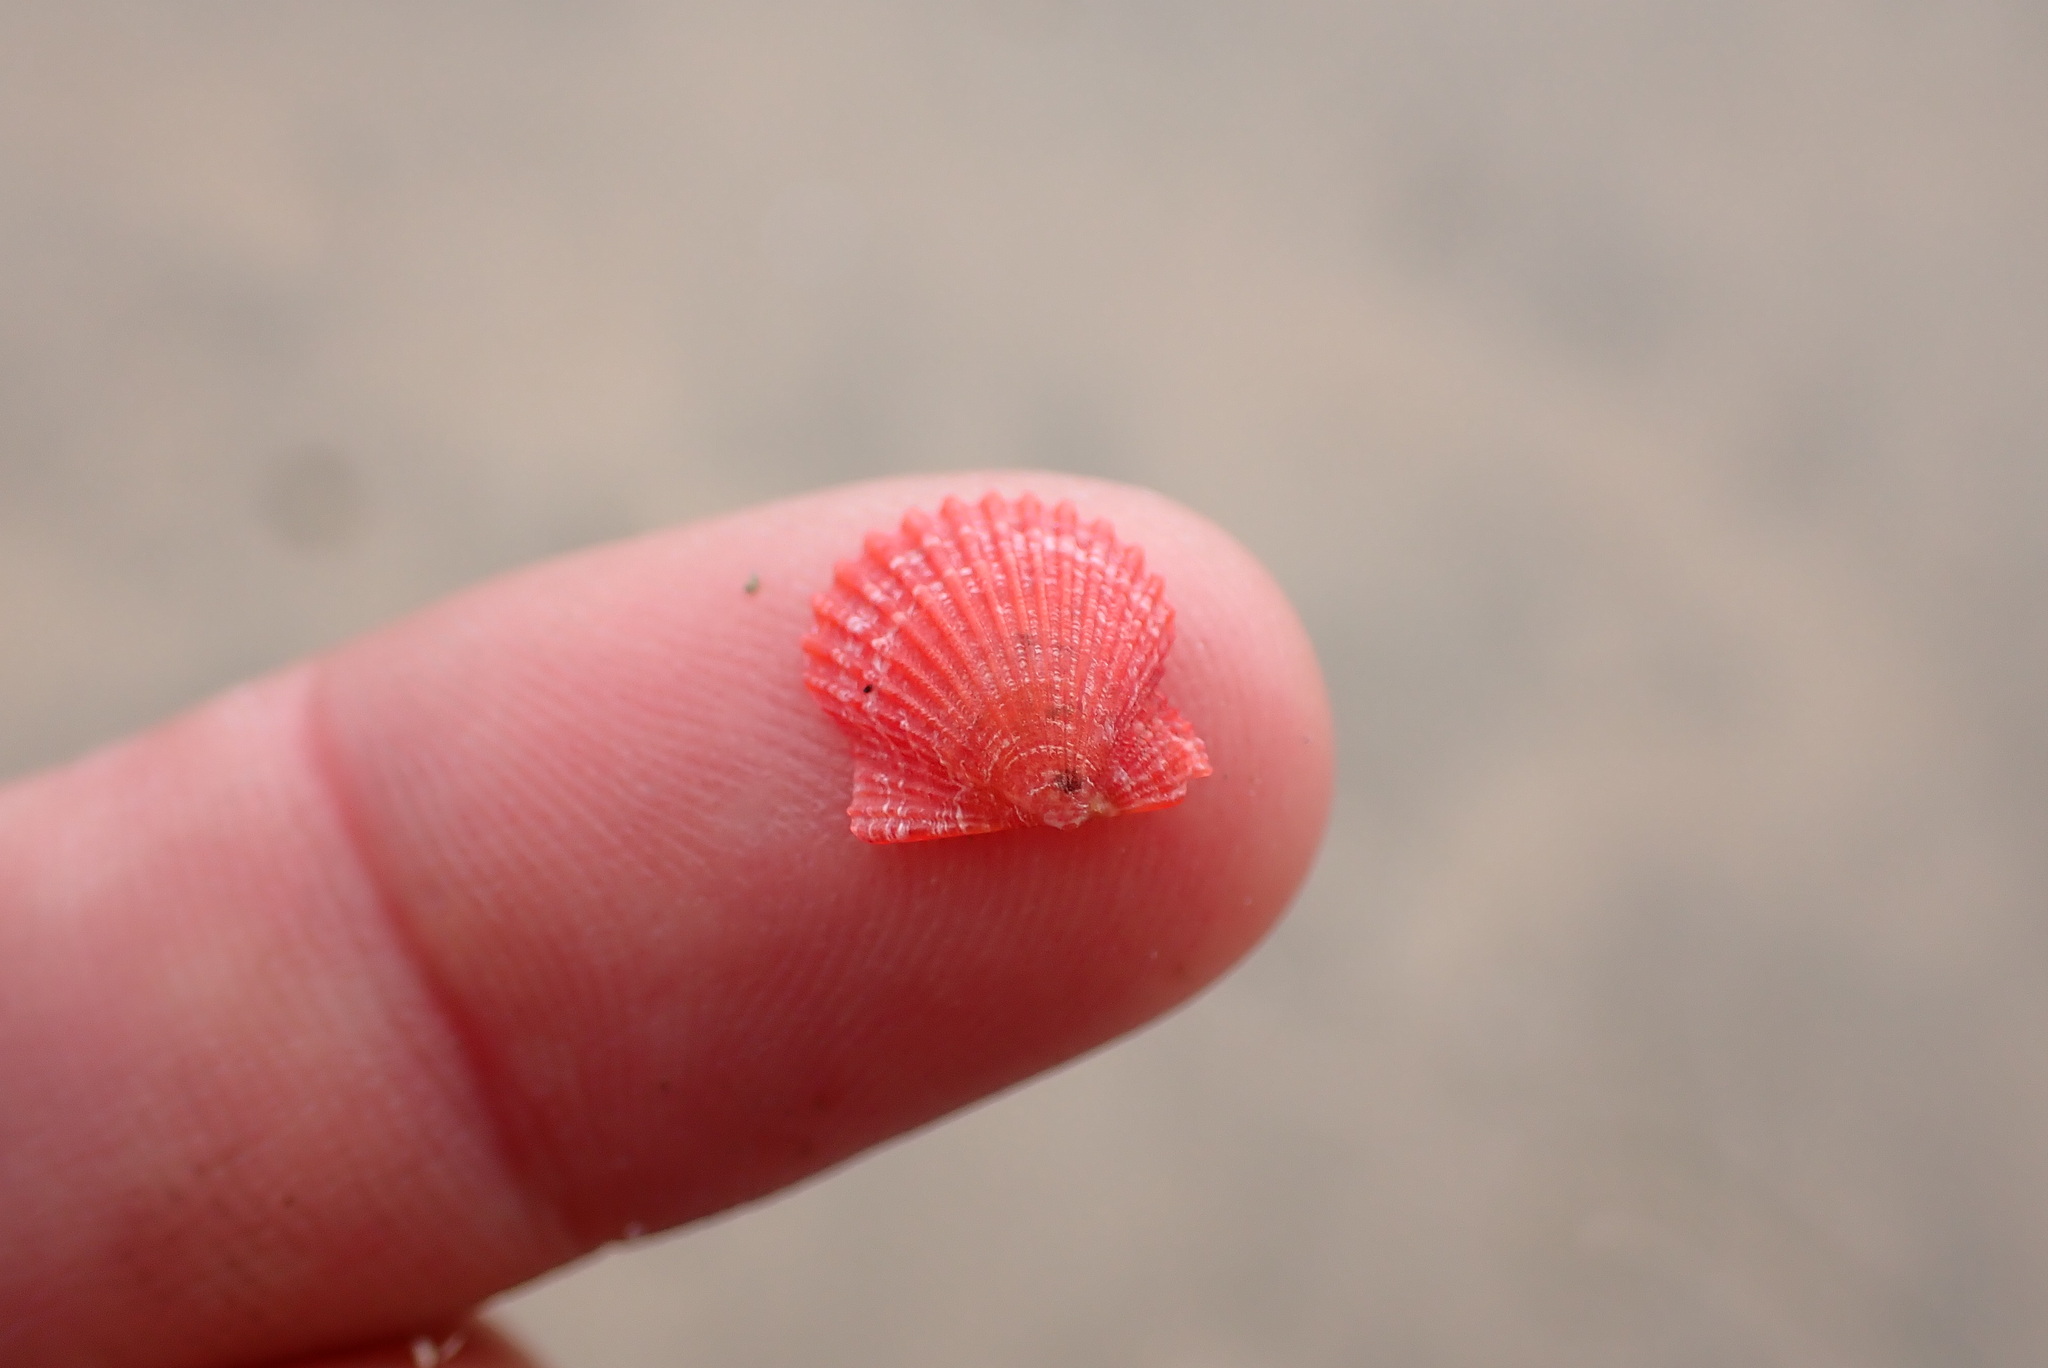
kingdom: Animalia
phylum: Mollusca
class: Bivalvia
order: Pectinida
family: Pectinidae
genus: Leptopecten
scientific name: Leptopecten latiauratus
